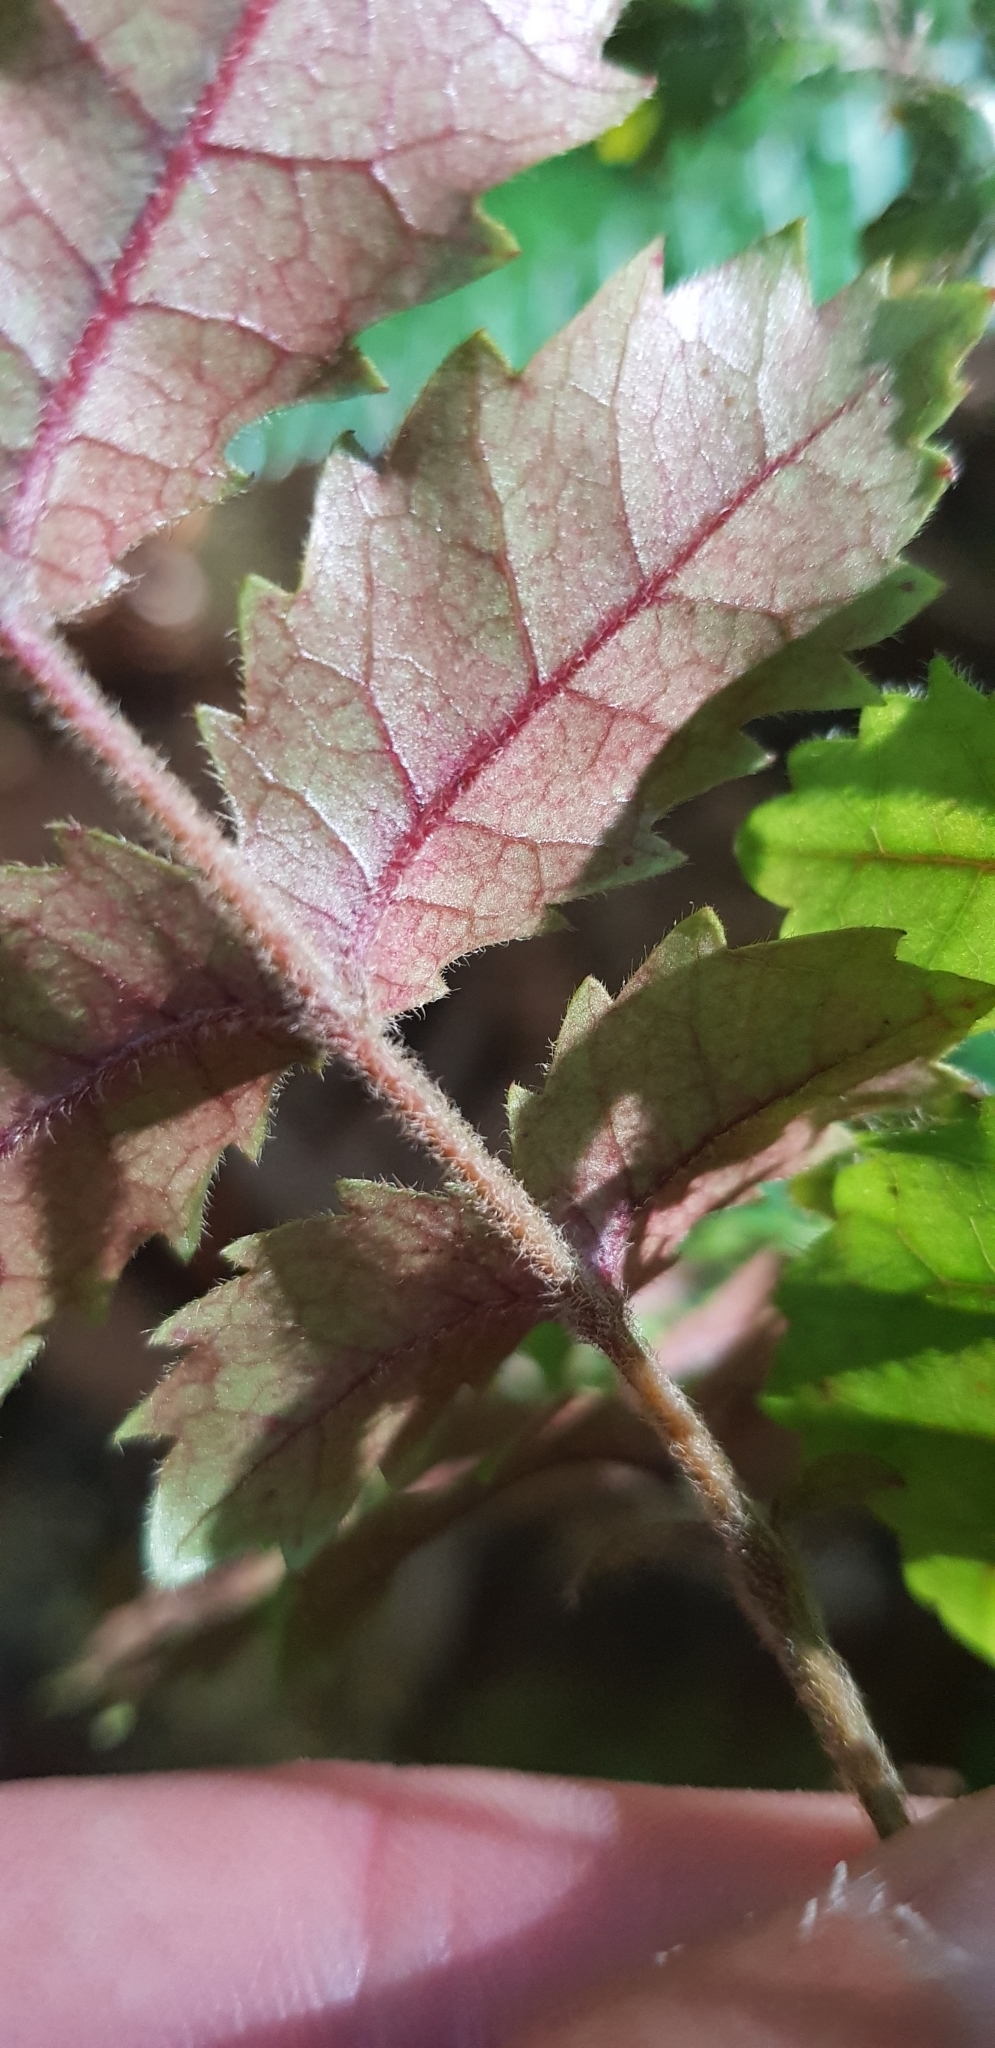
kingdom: Plantae
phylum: Tracheophyta
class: Magnoliopsida
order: Oxalidales
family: Cunoniaceae
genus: Ackama
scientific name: Ackama rosifolia
